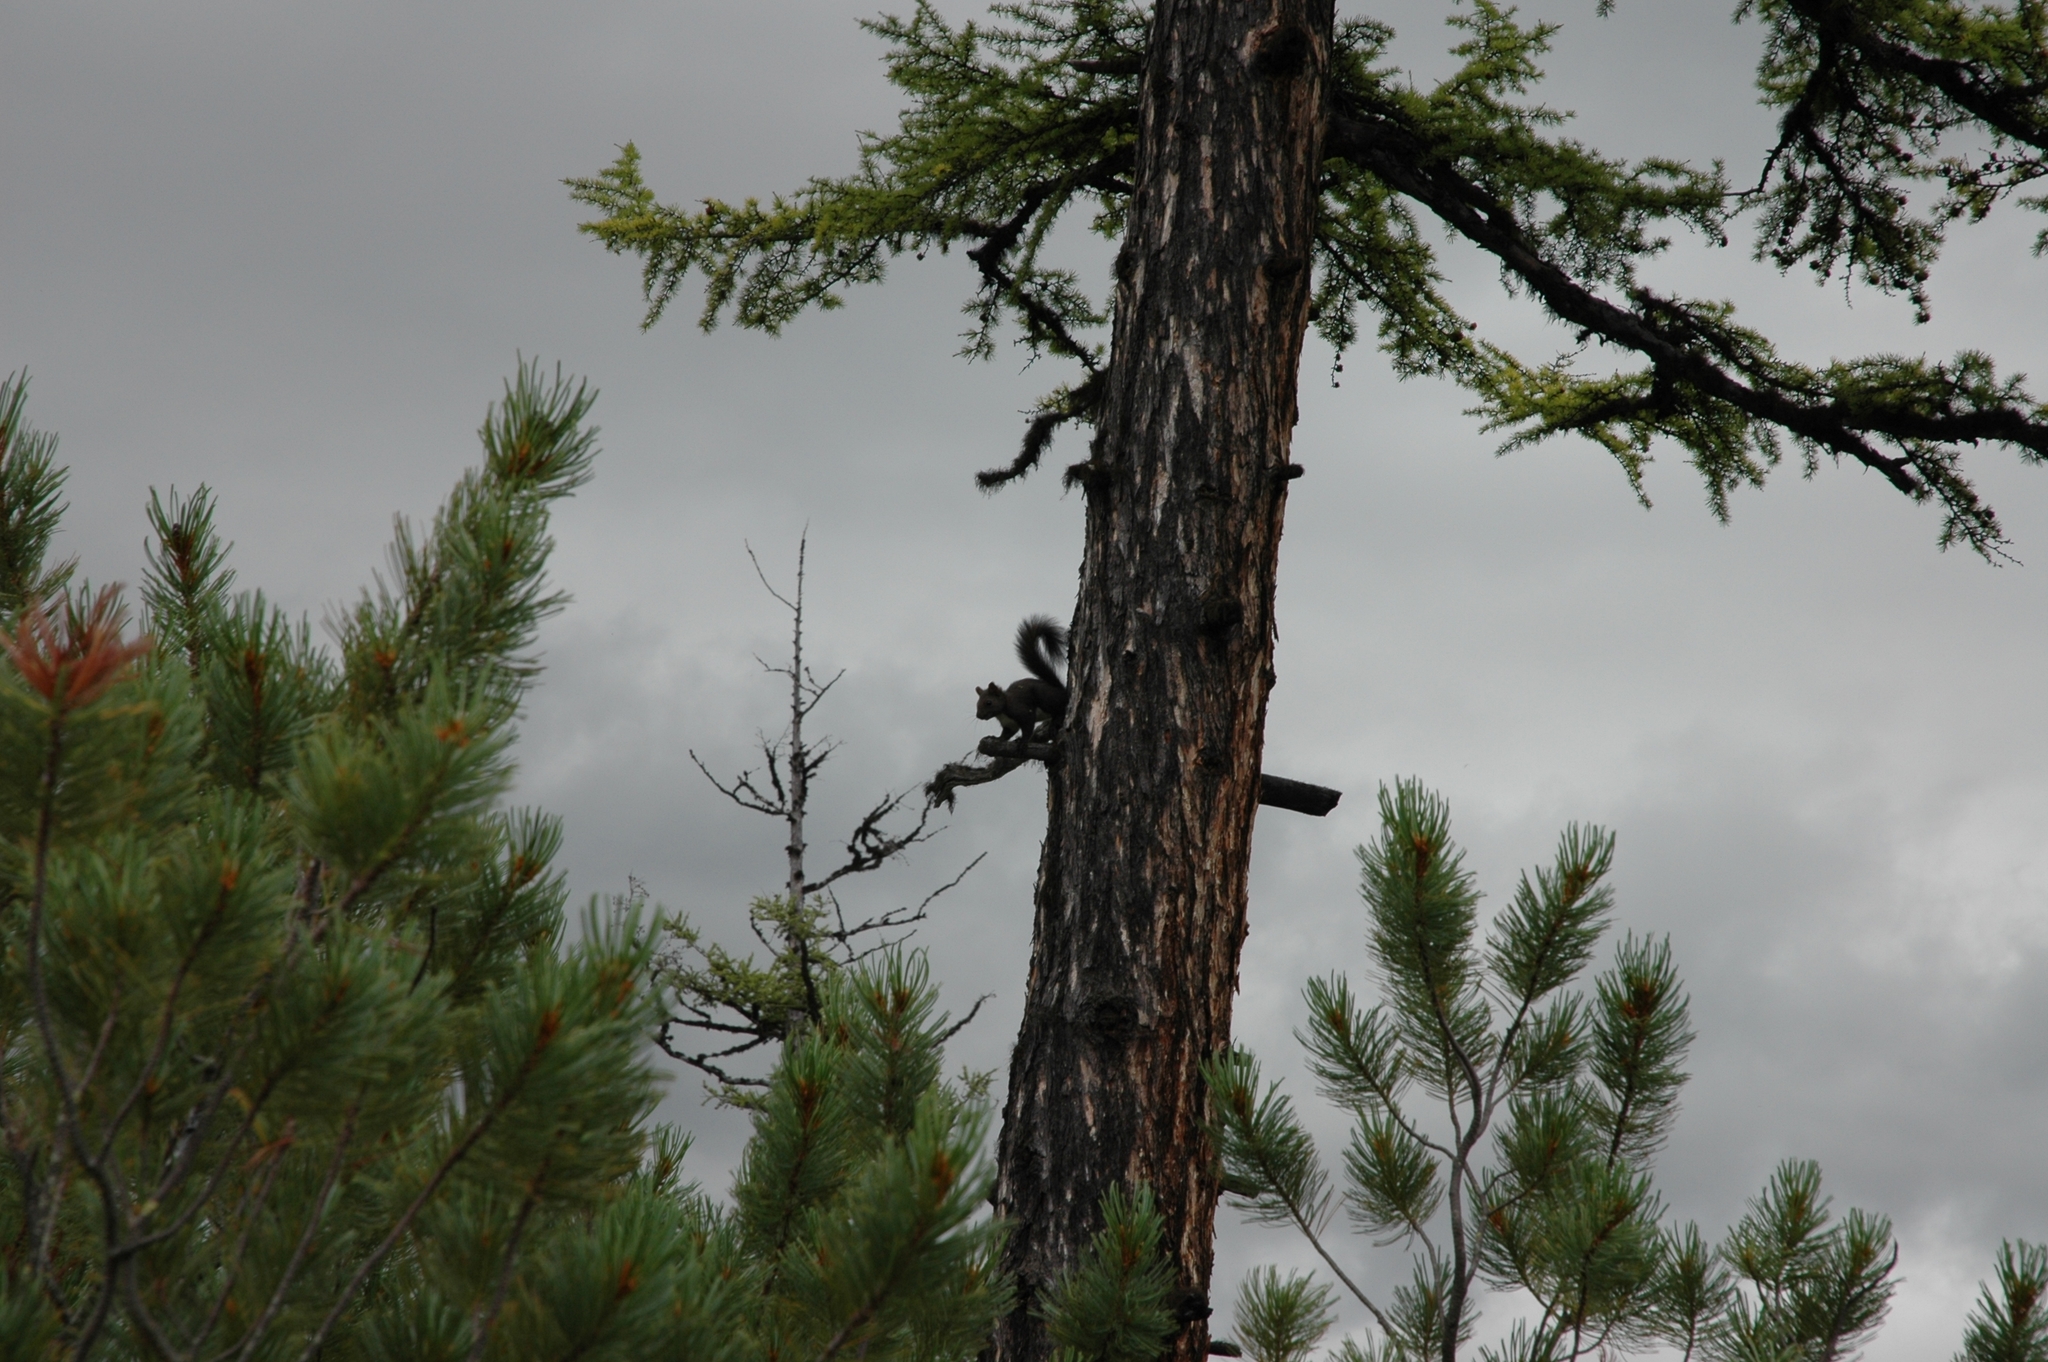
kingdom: Animalia
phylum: Chordata
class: Mammalia
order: Rodentia
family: Sciuridae
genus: Sciurus
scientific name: Sciurus vulgaris
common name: Eurasian red squirrel
